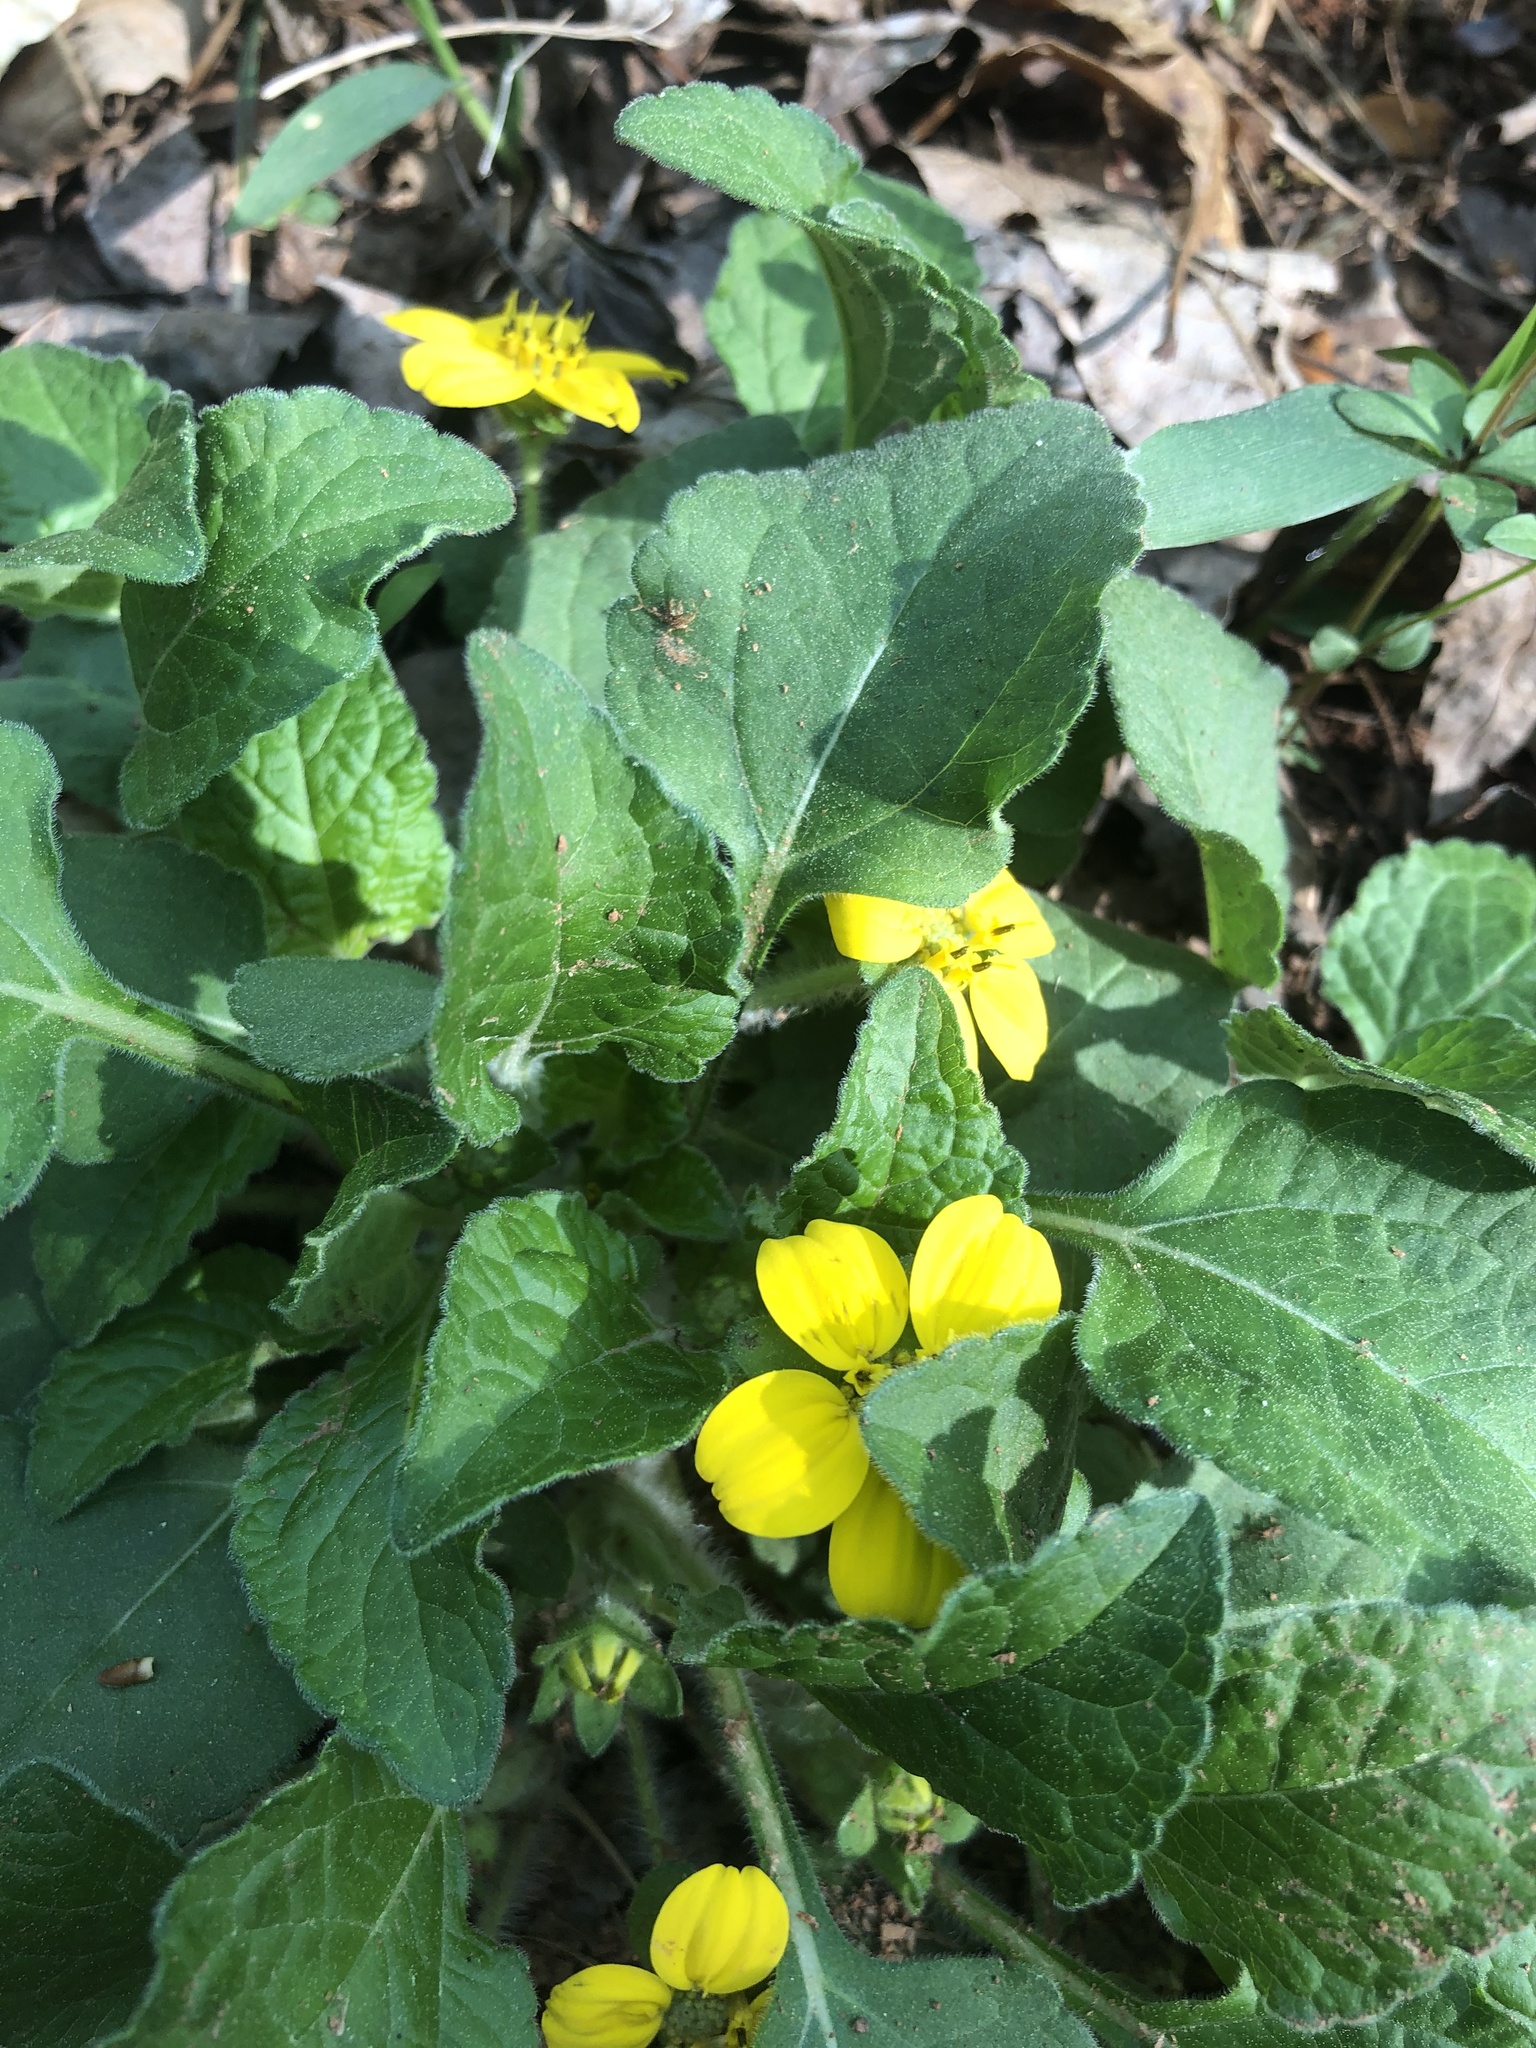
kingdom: Plantae
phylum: Tracheophyta
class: Magnoliopsida
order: Asterales
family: Asteraceae
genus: Chrysogonum
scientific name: Chrysogonum virginianum
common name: Golden-knee
